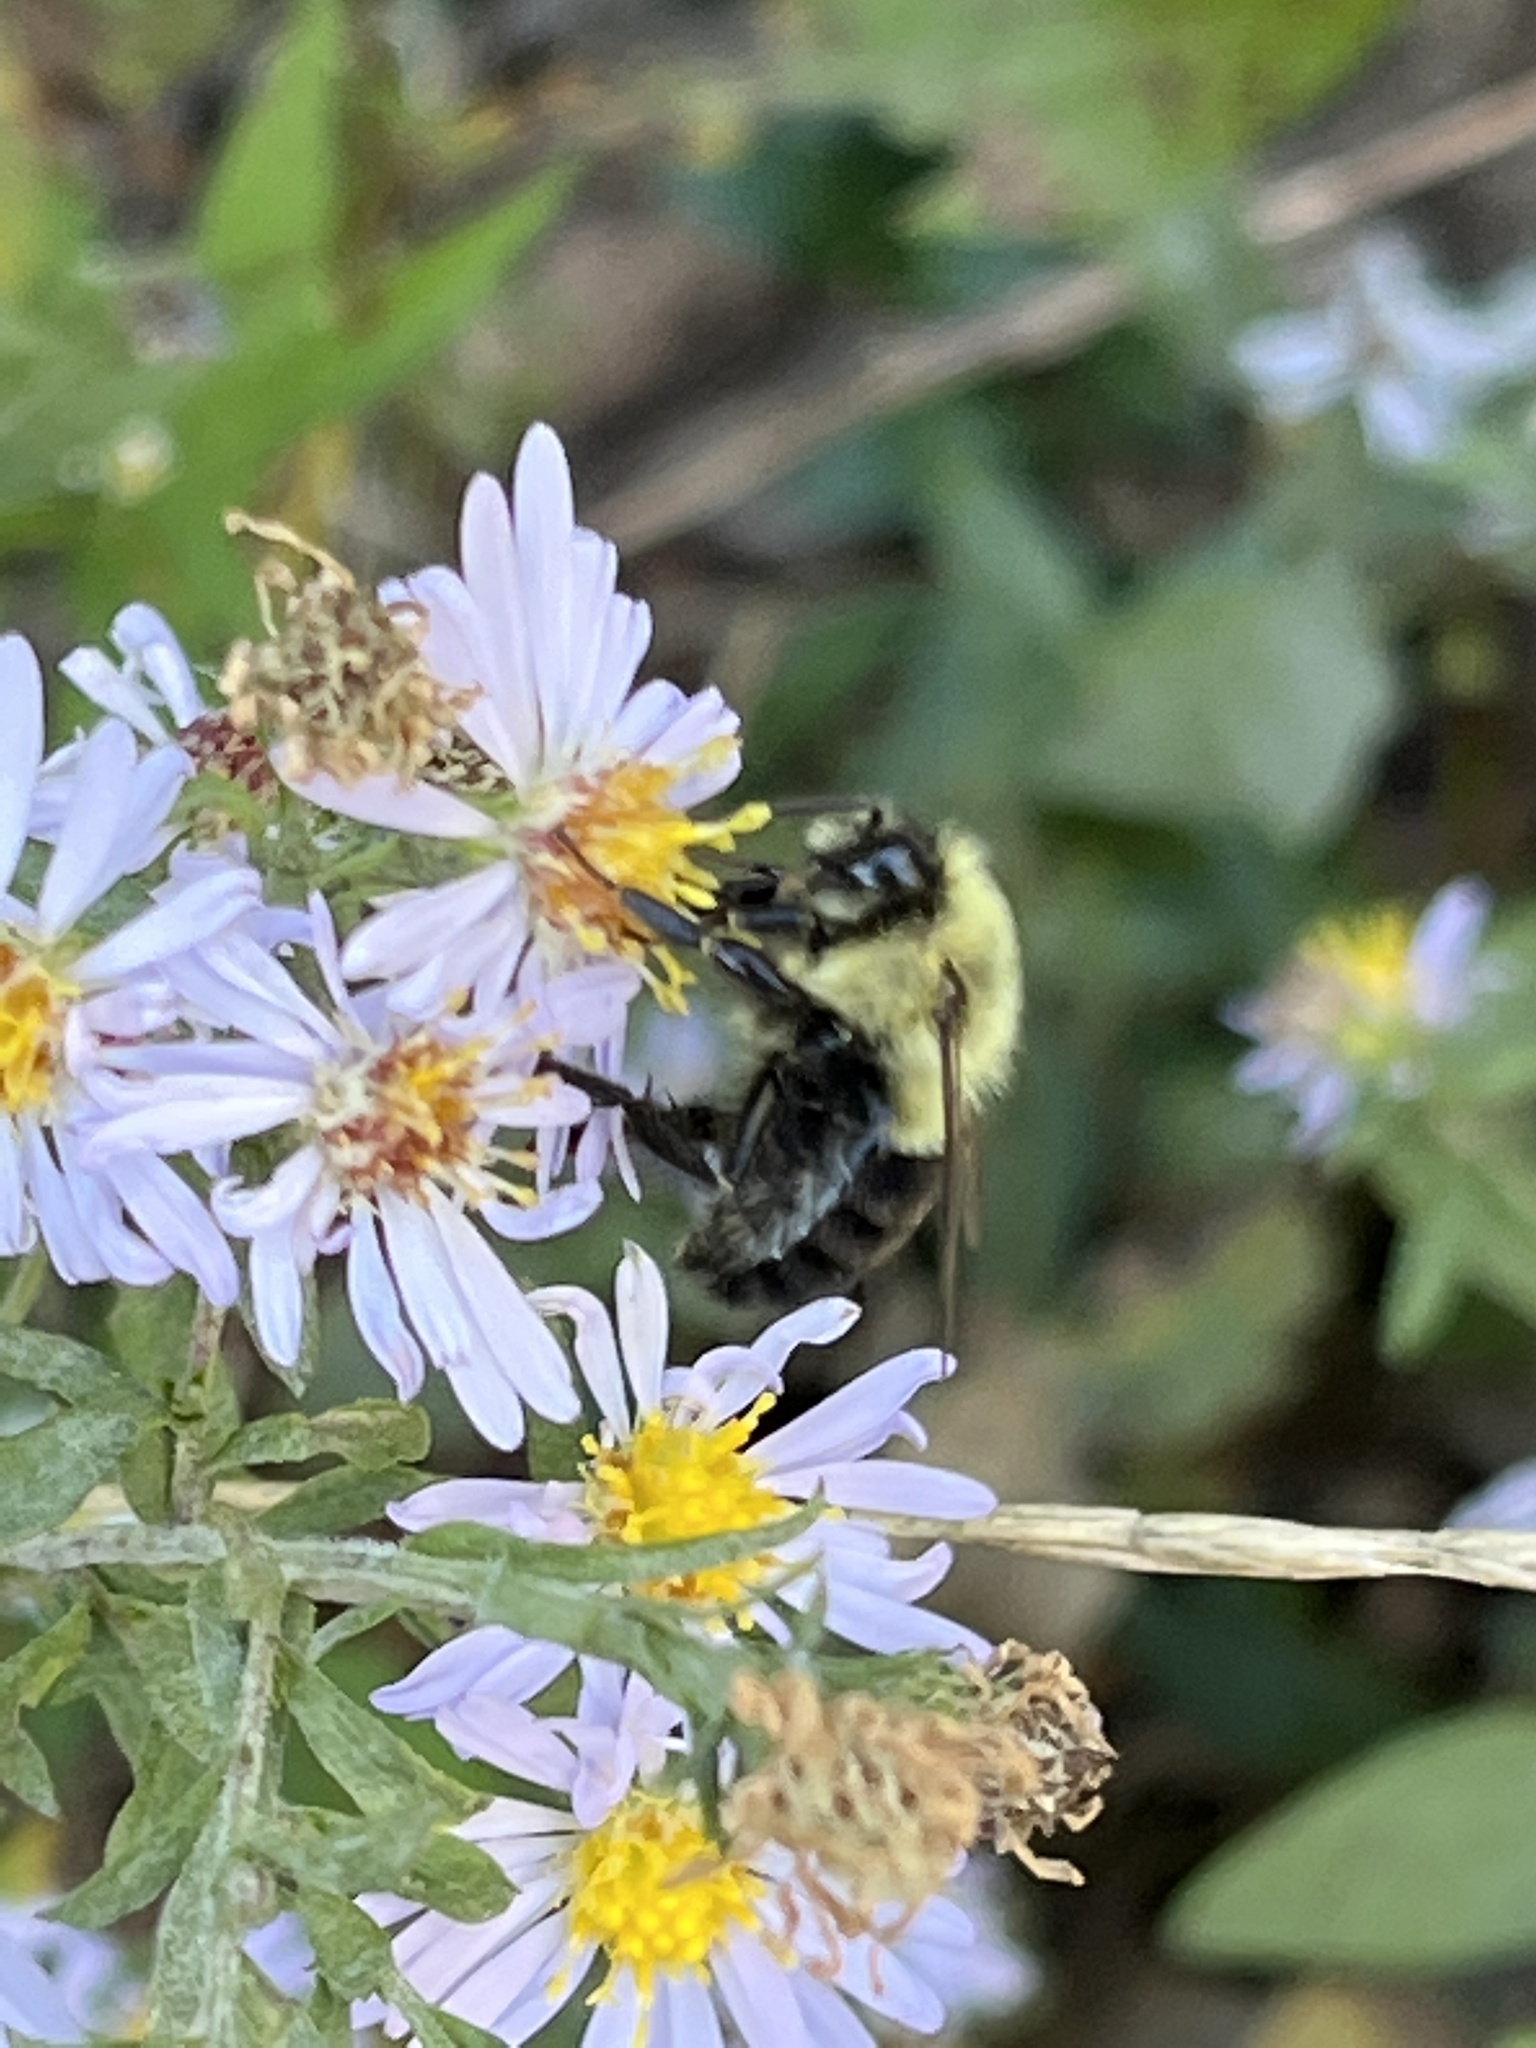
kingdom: Animalia
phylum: Arthropoda
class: Insecta
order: Hymenoptera
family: Apidae
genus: Bombus
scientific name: Bombus impatiens
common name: Common eastern bumble bee
